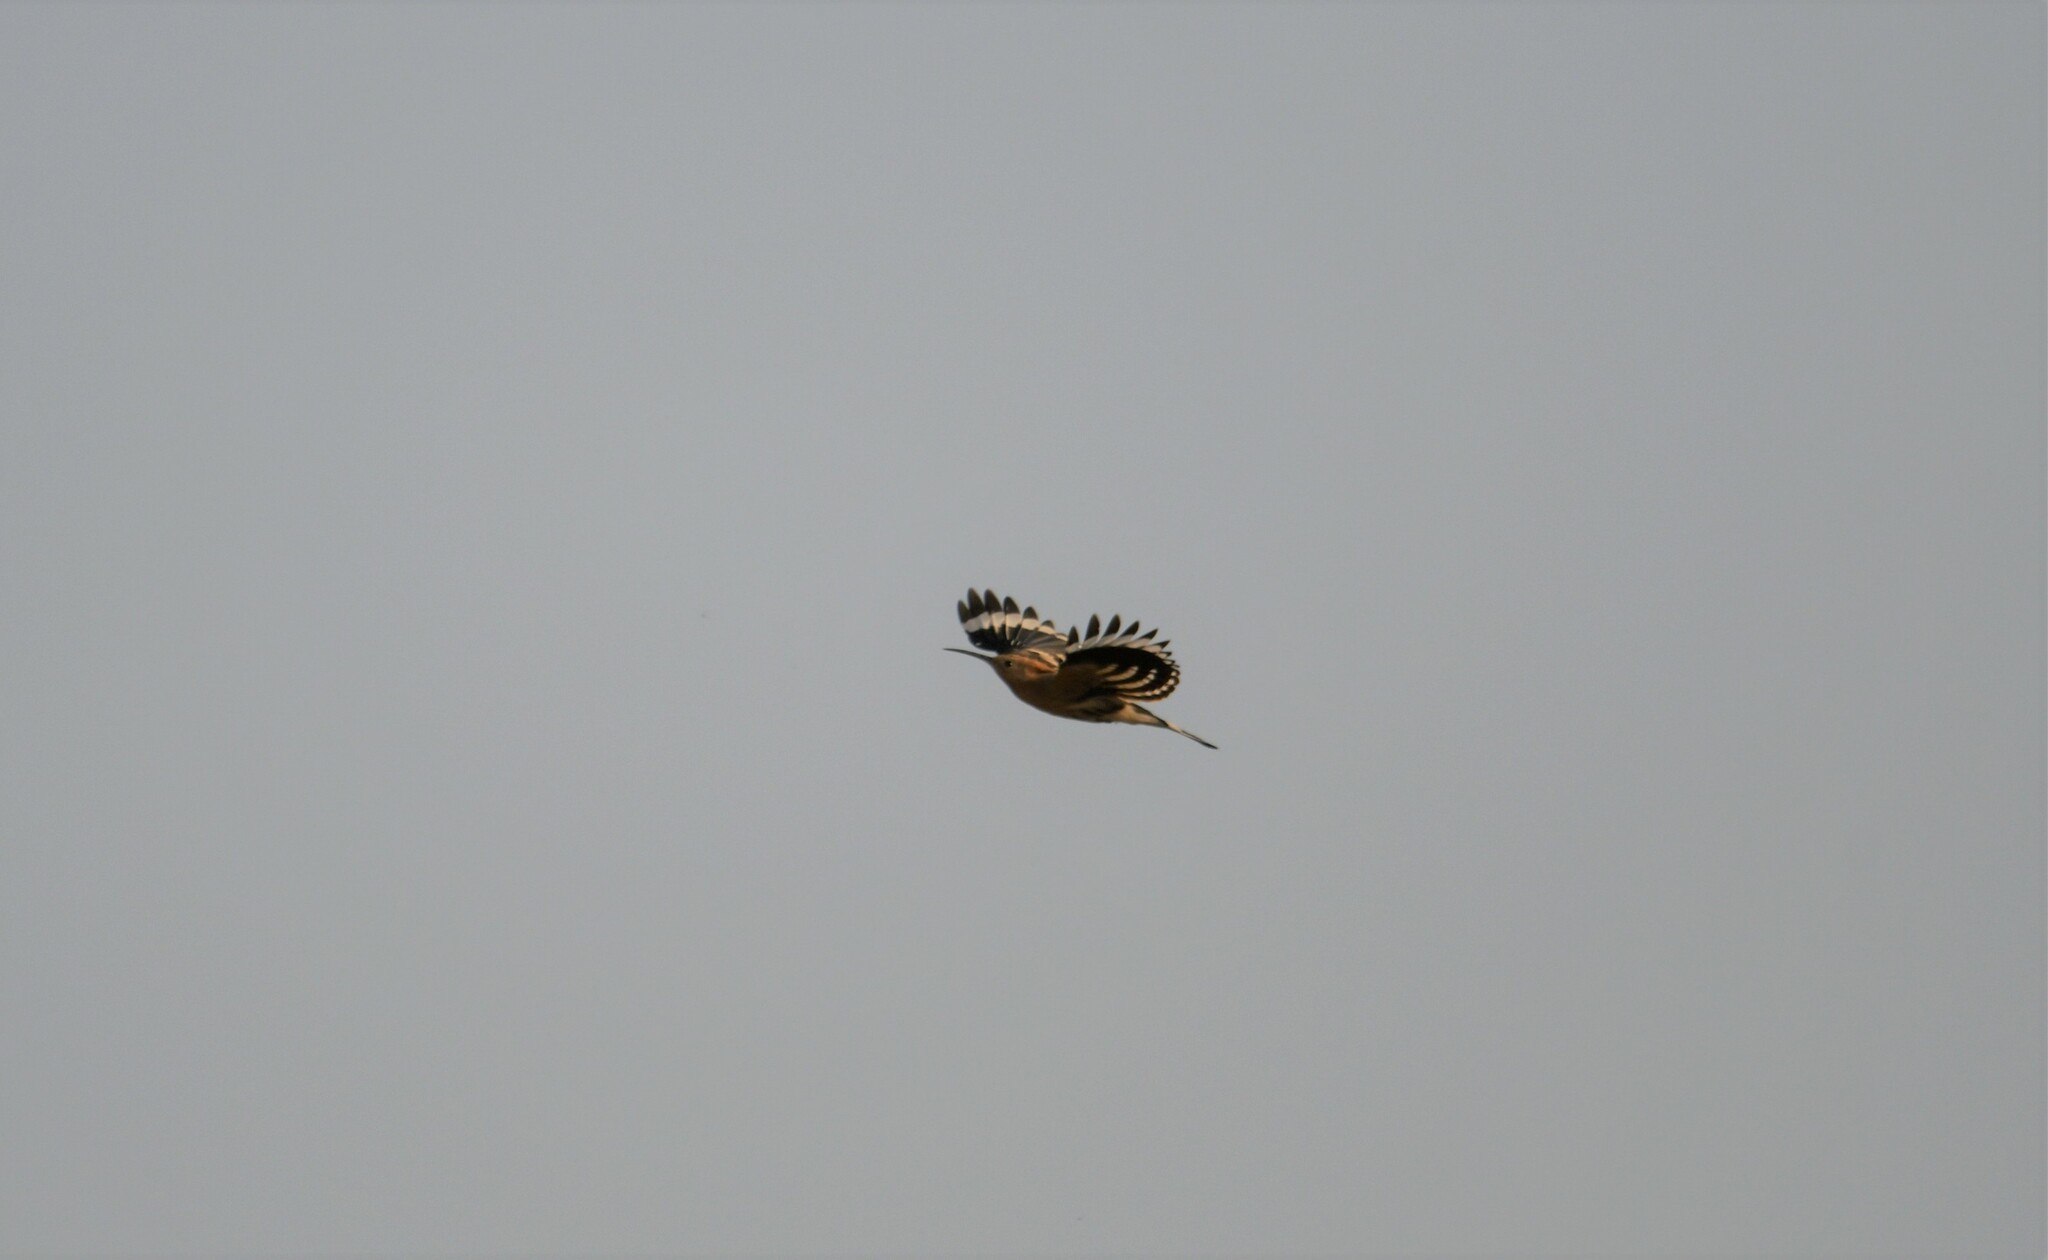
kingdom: Animalia
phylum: Chordata
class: Aves
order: Bucerotiformes
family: Upupidae
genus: Upupa
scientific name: Upupa epops
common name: Eurasian hoopoe
